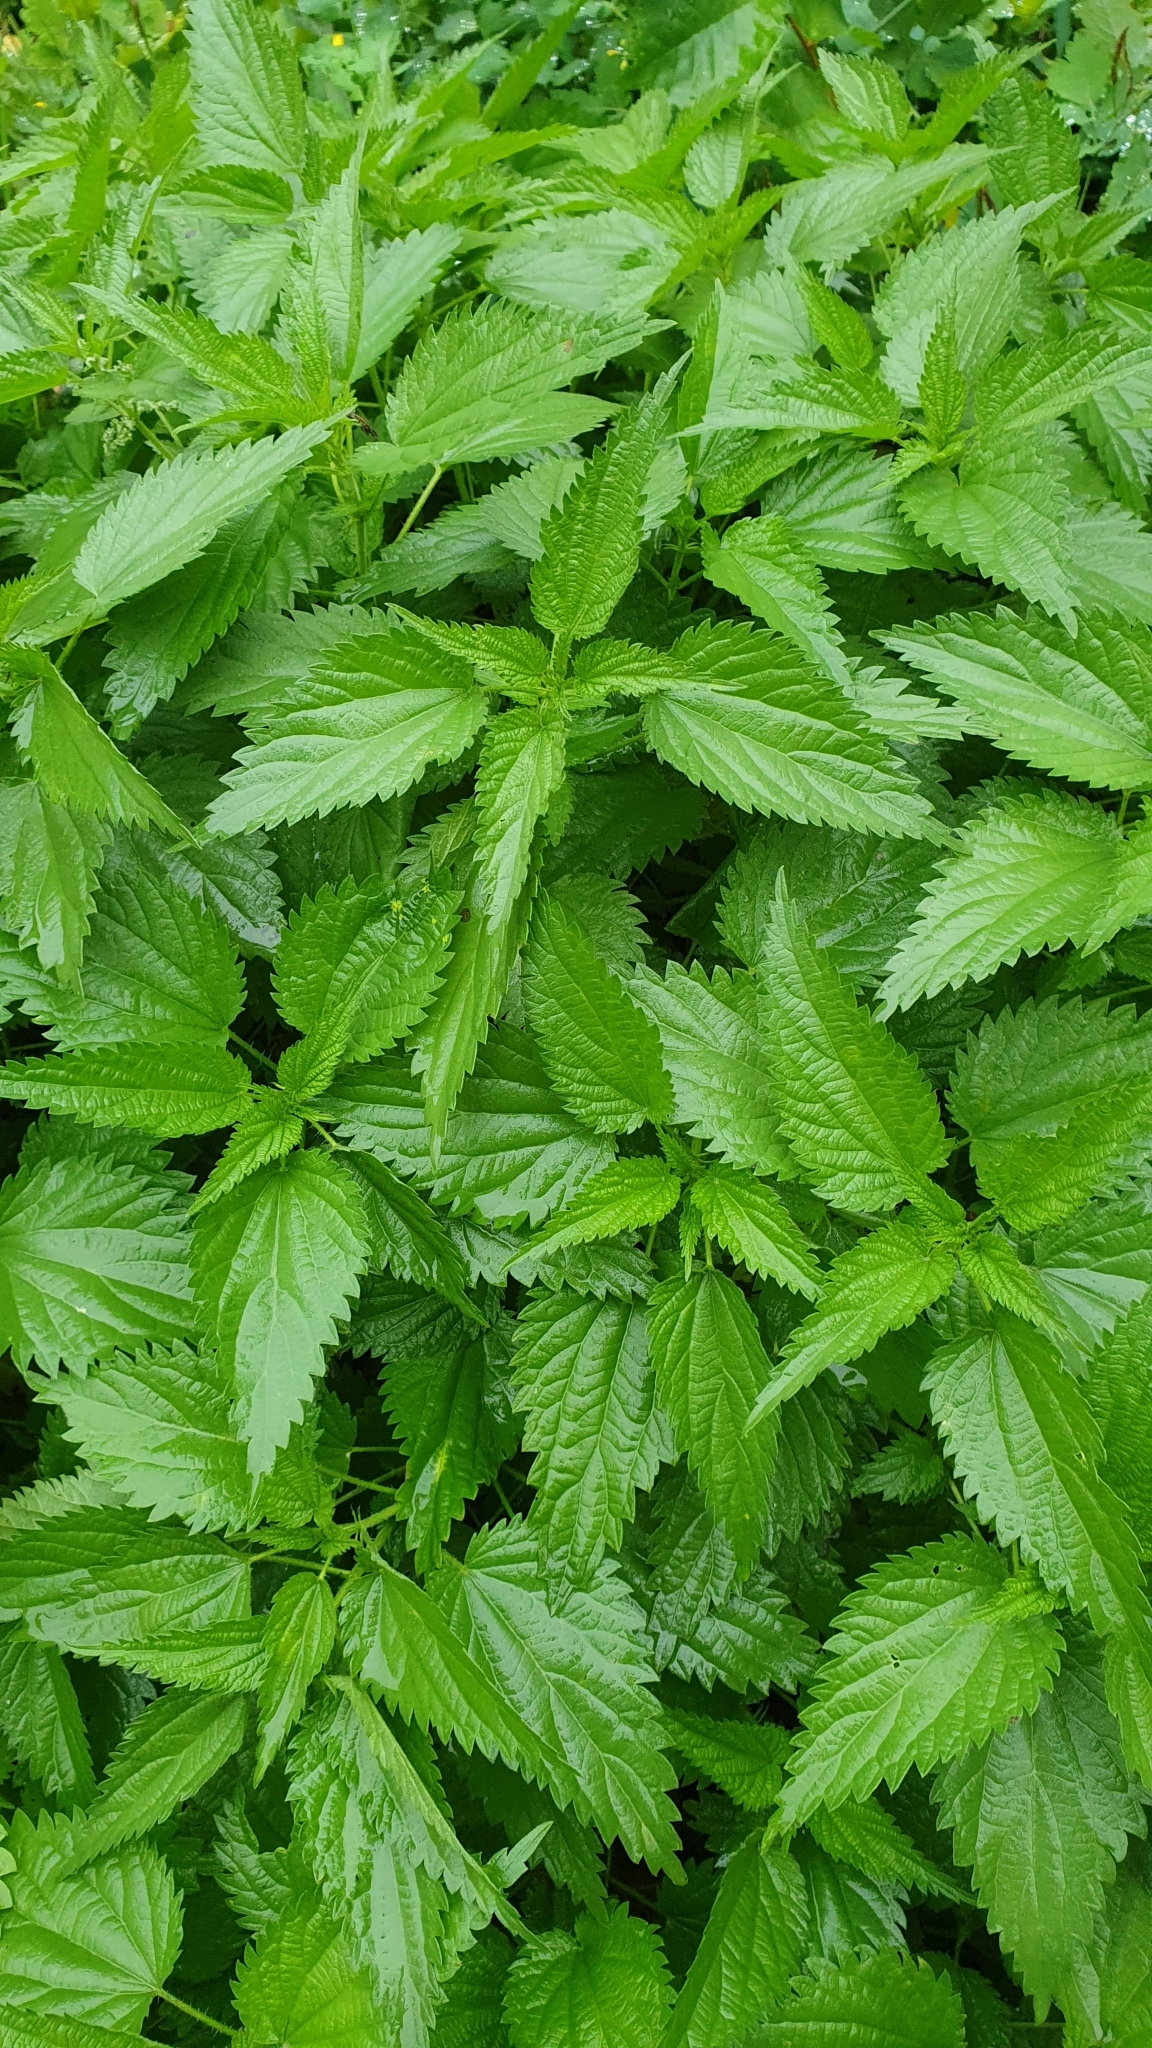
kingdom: Plantae
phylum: Tracheophyta
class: Magnoliopsida
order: Rosales
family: Urticaceae
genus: Urtica
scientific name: Urtica dioica
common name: Common nettle
